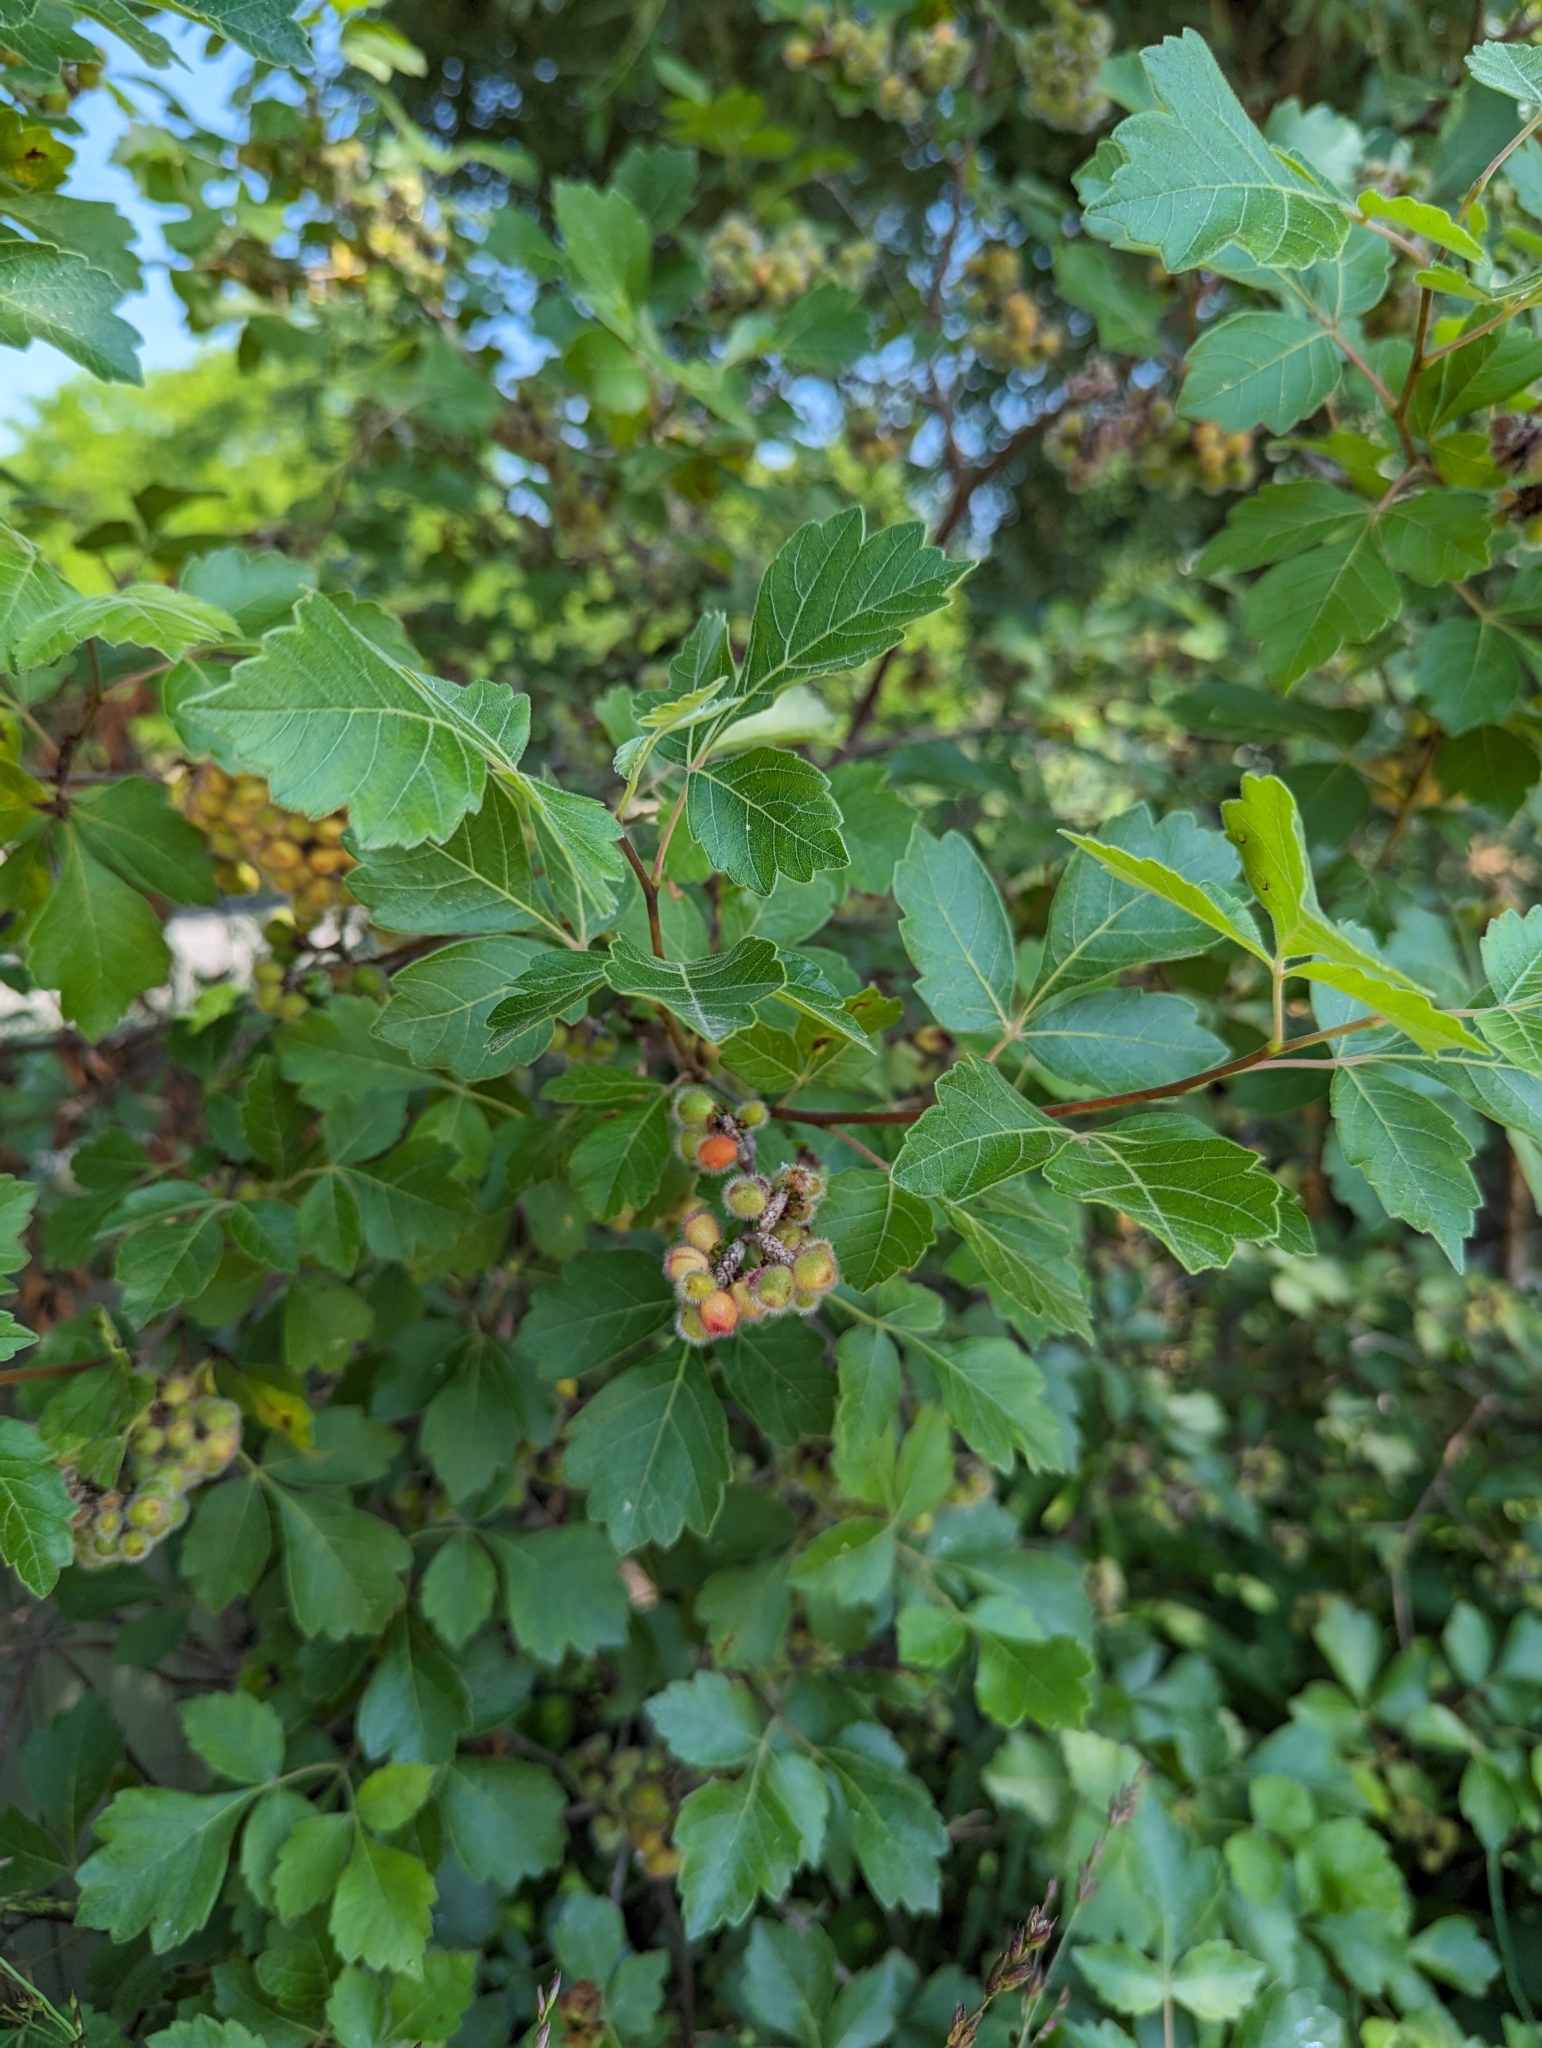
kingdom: Plantae
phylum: Tracheophyta
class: Magnoliopsida
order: Sapindales
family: Anacardiaceae
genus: Rhus
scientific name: Rhus aromatica
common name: Aromatic sumac
